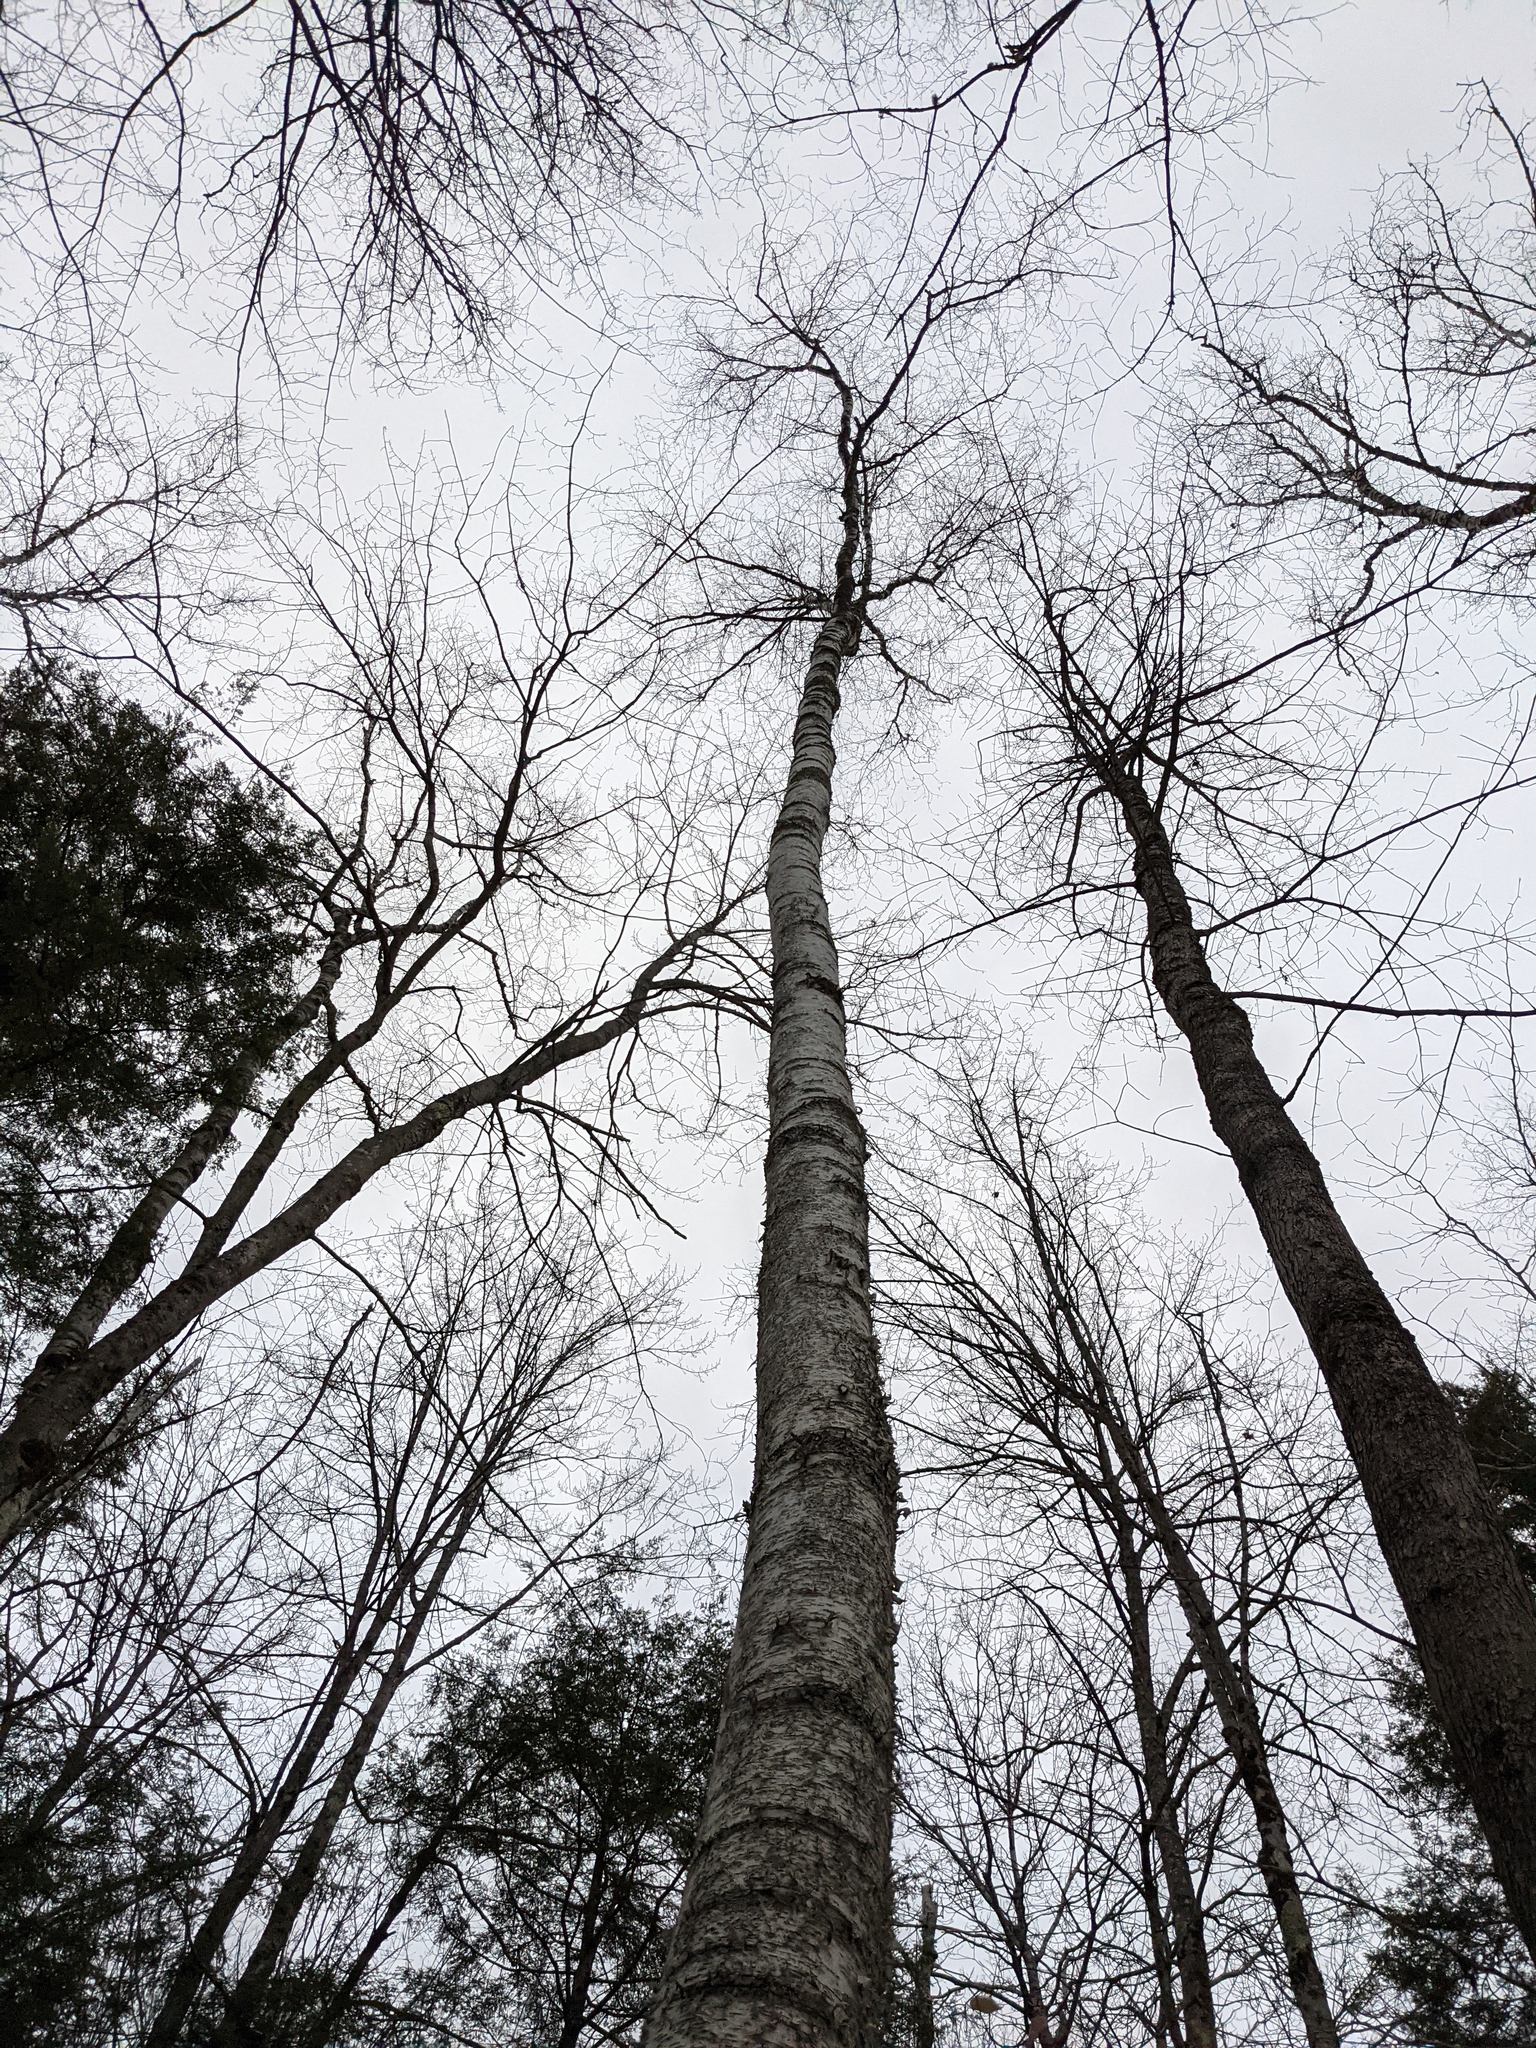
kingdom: Plantae
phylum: Tracheophyta
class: Magnoliopsida
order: Fagales
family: Betulaceae
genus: Betula
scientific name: Betula alleghaniensis
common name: Yellow birch
